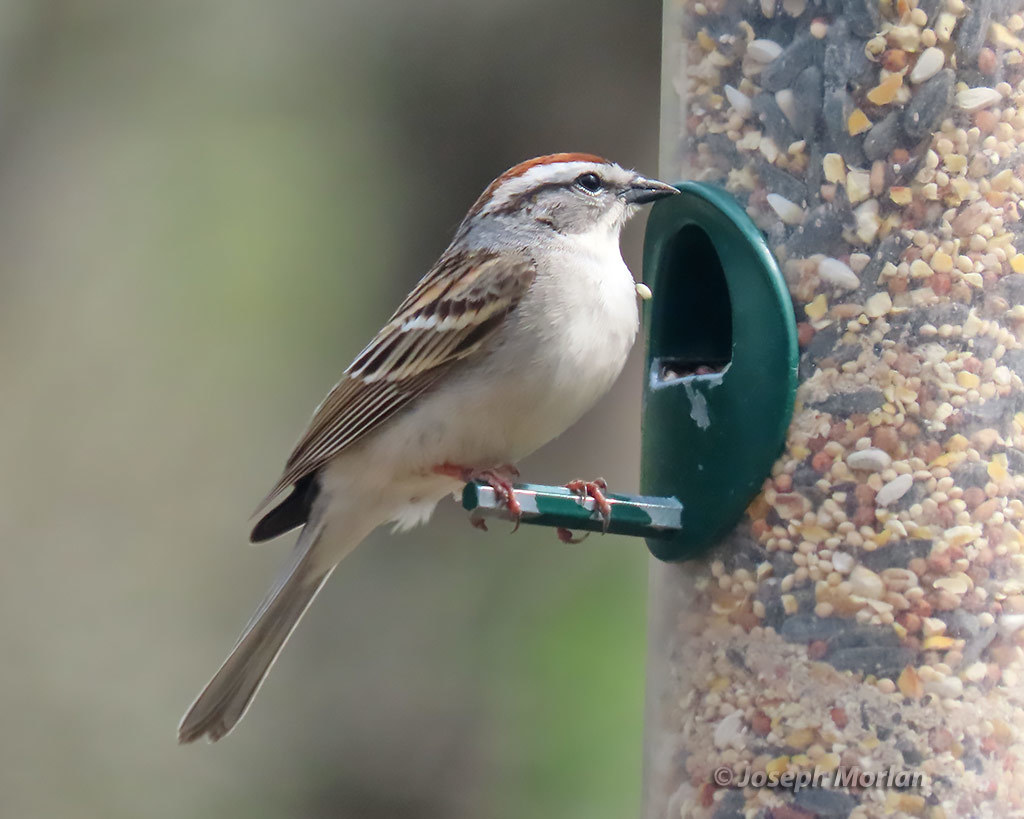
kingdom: Animalia
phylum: Chordata
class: Aves
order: Passeriformes
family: Passerellidae
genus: Spizella
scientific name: Spizella passerina
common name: Chipping sparrow
